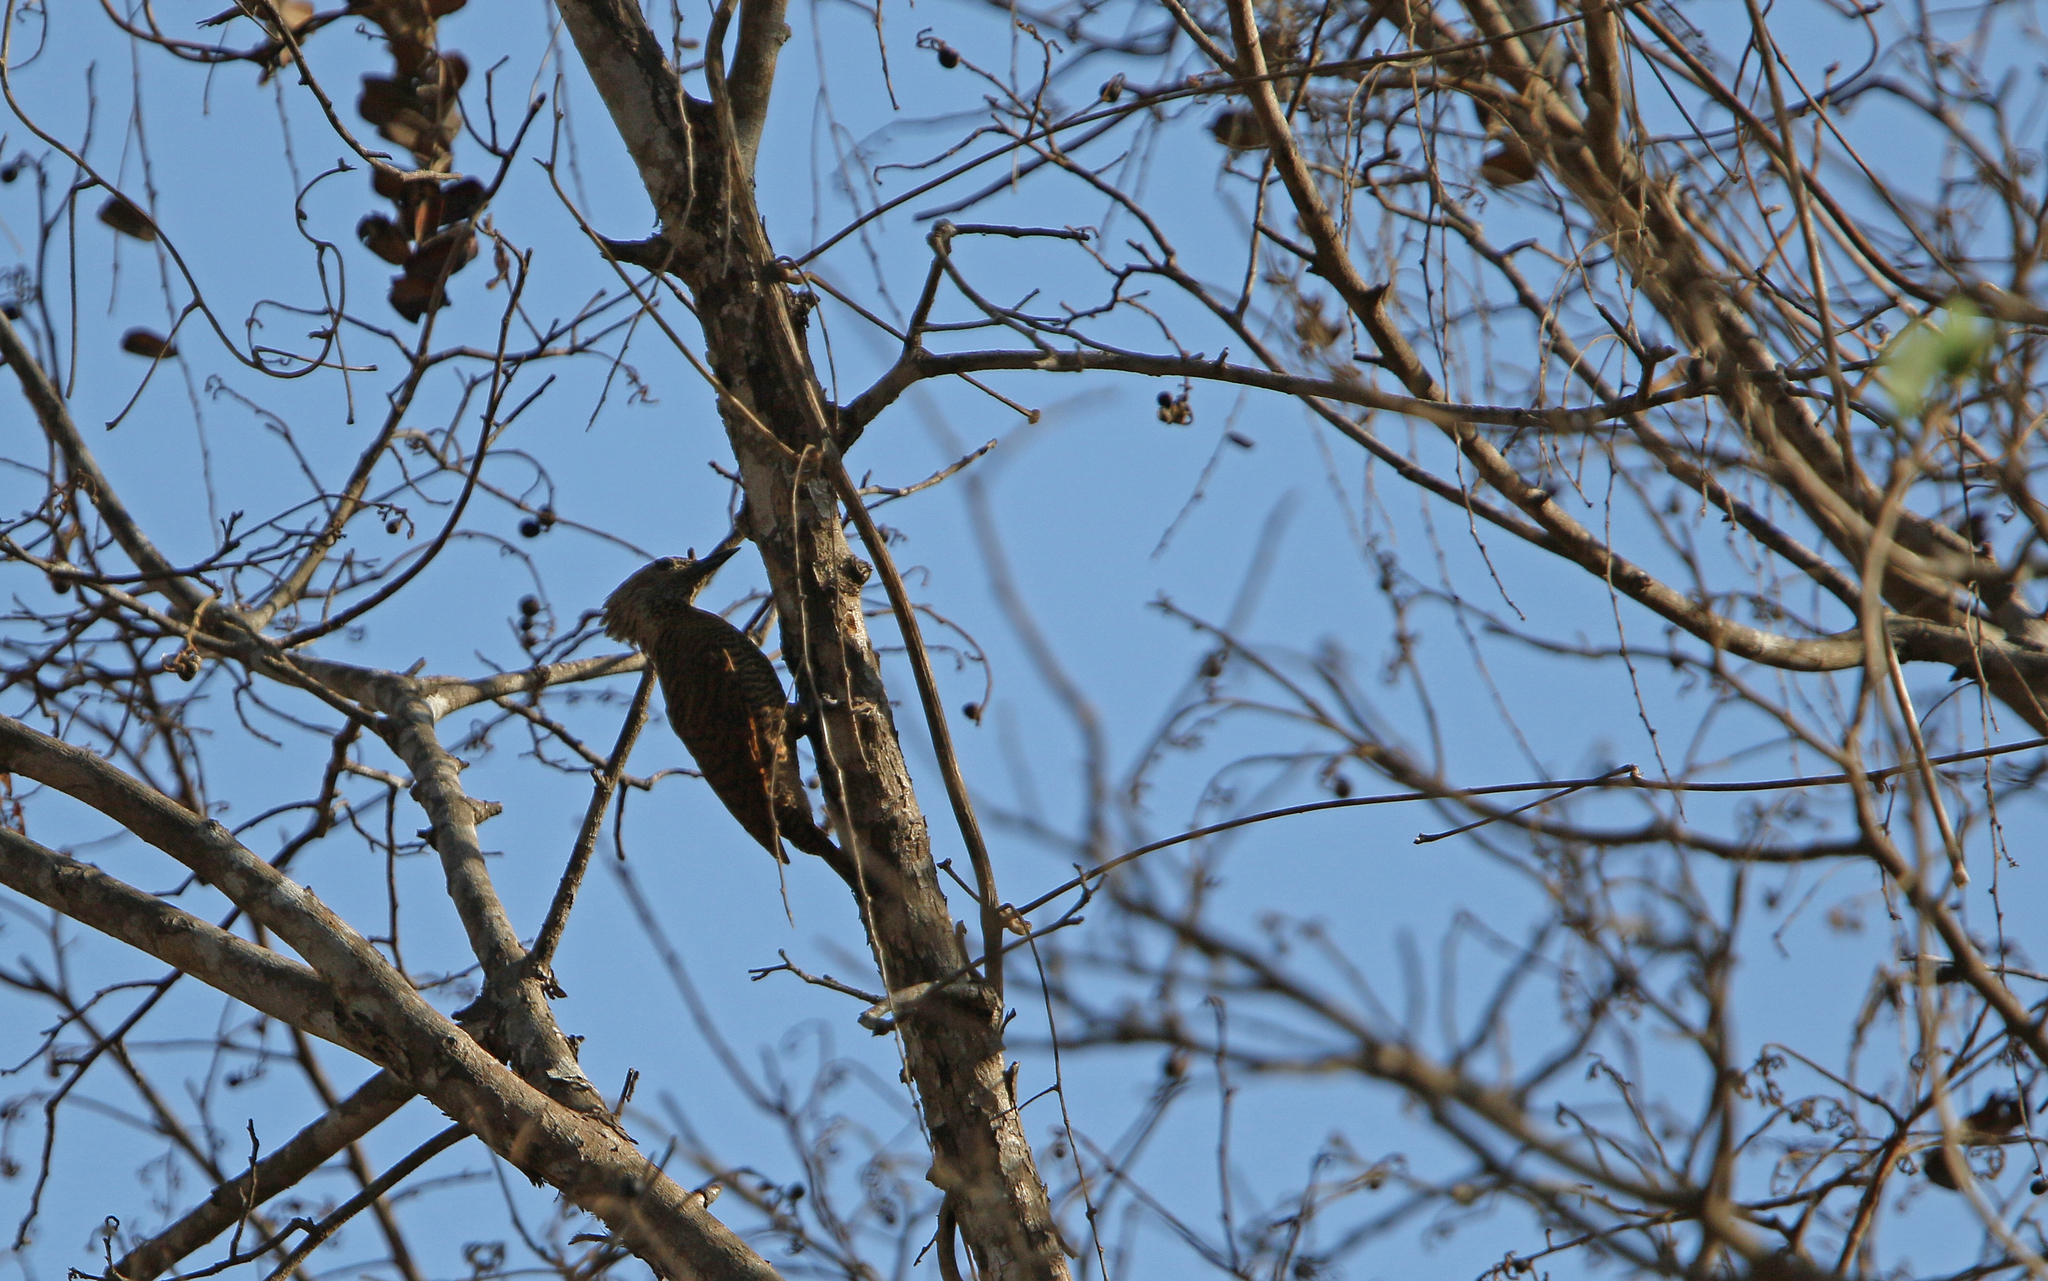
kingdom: Animalia
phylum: Chordata
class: Aves
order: Piciformes
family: Picidae
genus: Micropternus
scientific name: Micropternus brachyurus
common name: Rufous woodpecker
